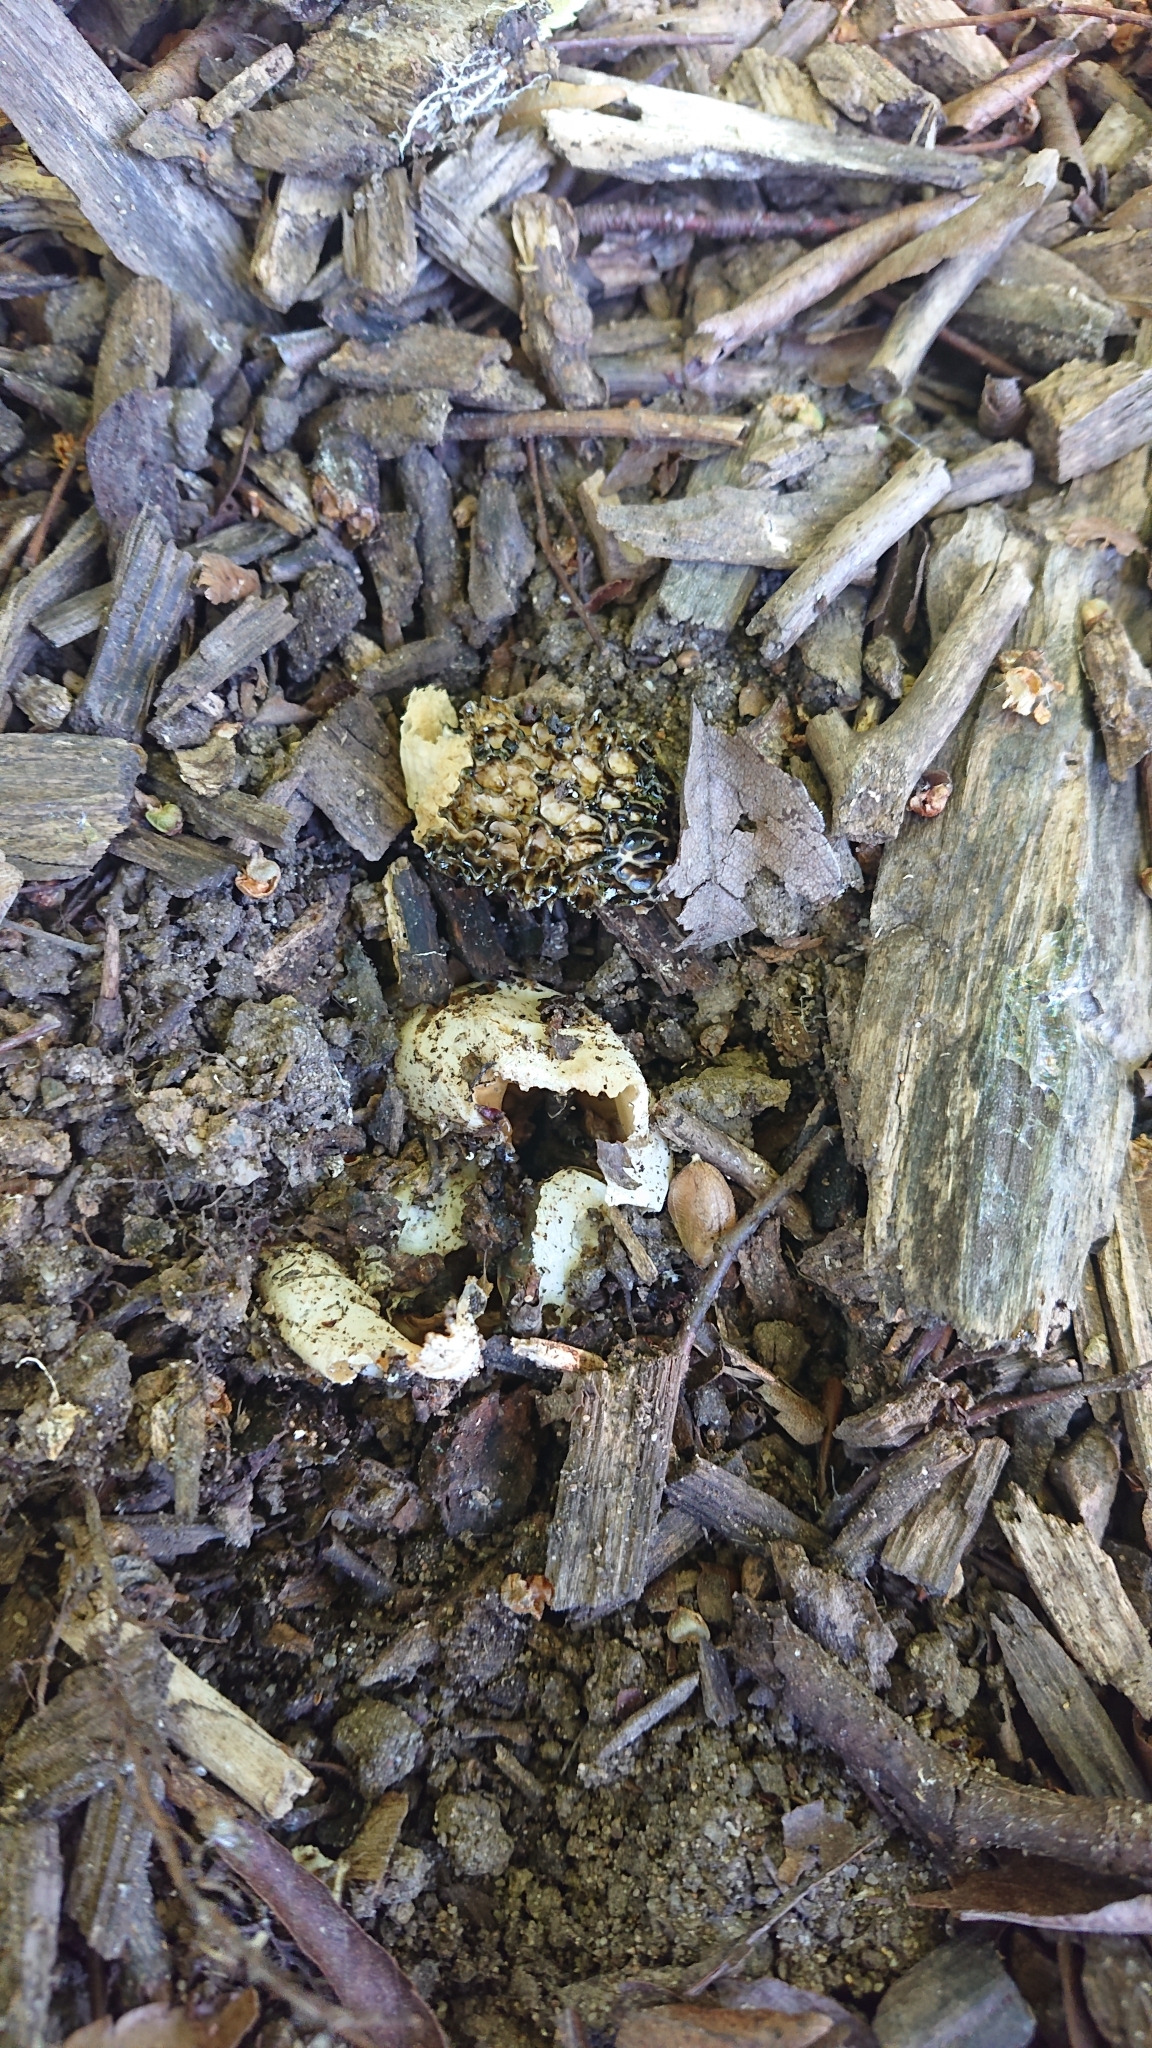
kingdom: Fungi
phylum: Basidiomycota
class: Agaricomycetes
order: Phallales
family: Phallaceae
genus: Phallus
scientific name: Phallus impudicus
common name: Common stinkhorn
